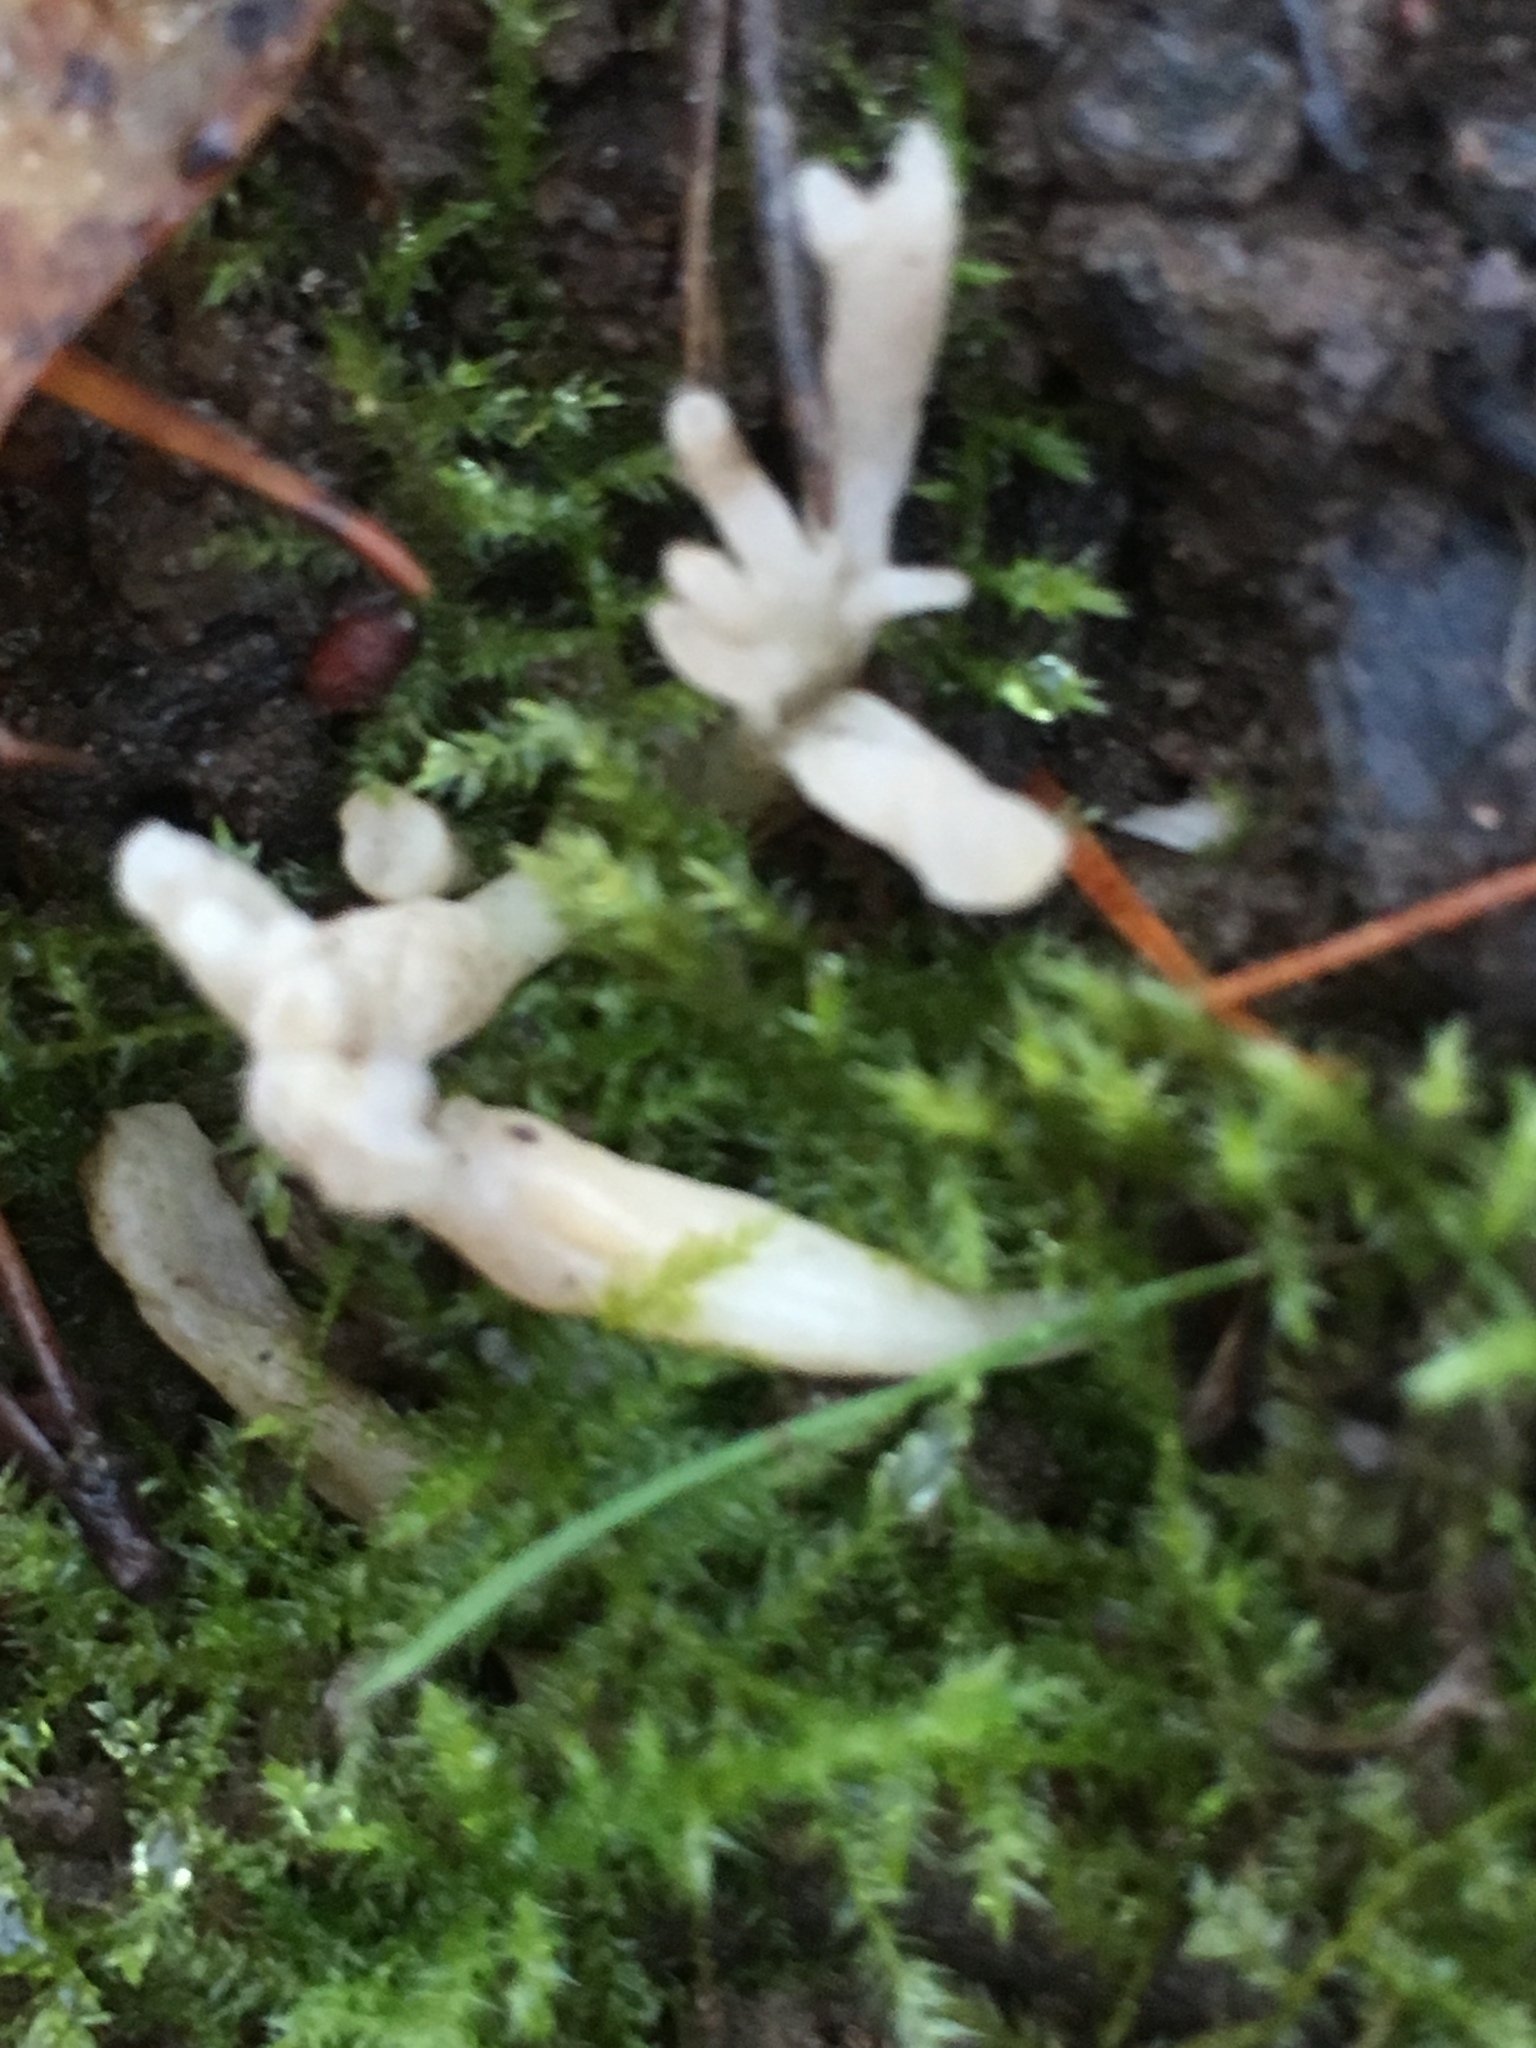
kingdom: Fungi
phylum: Basidiomycota
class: Agaricomycetes
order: Cantharellales
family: Hydnaceae
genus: Clavulina
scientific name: Clavulina rugosa
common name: Wrinkled club
